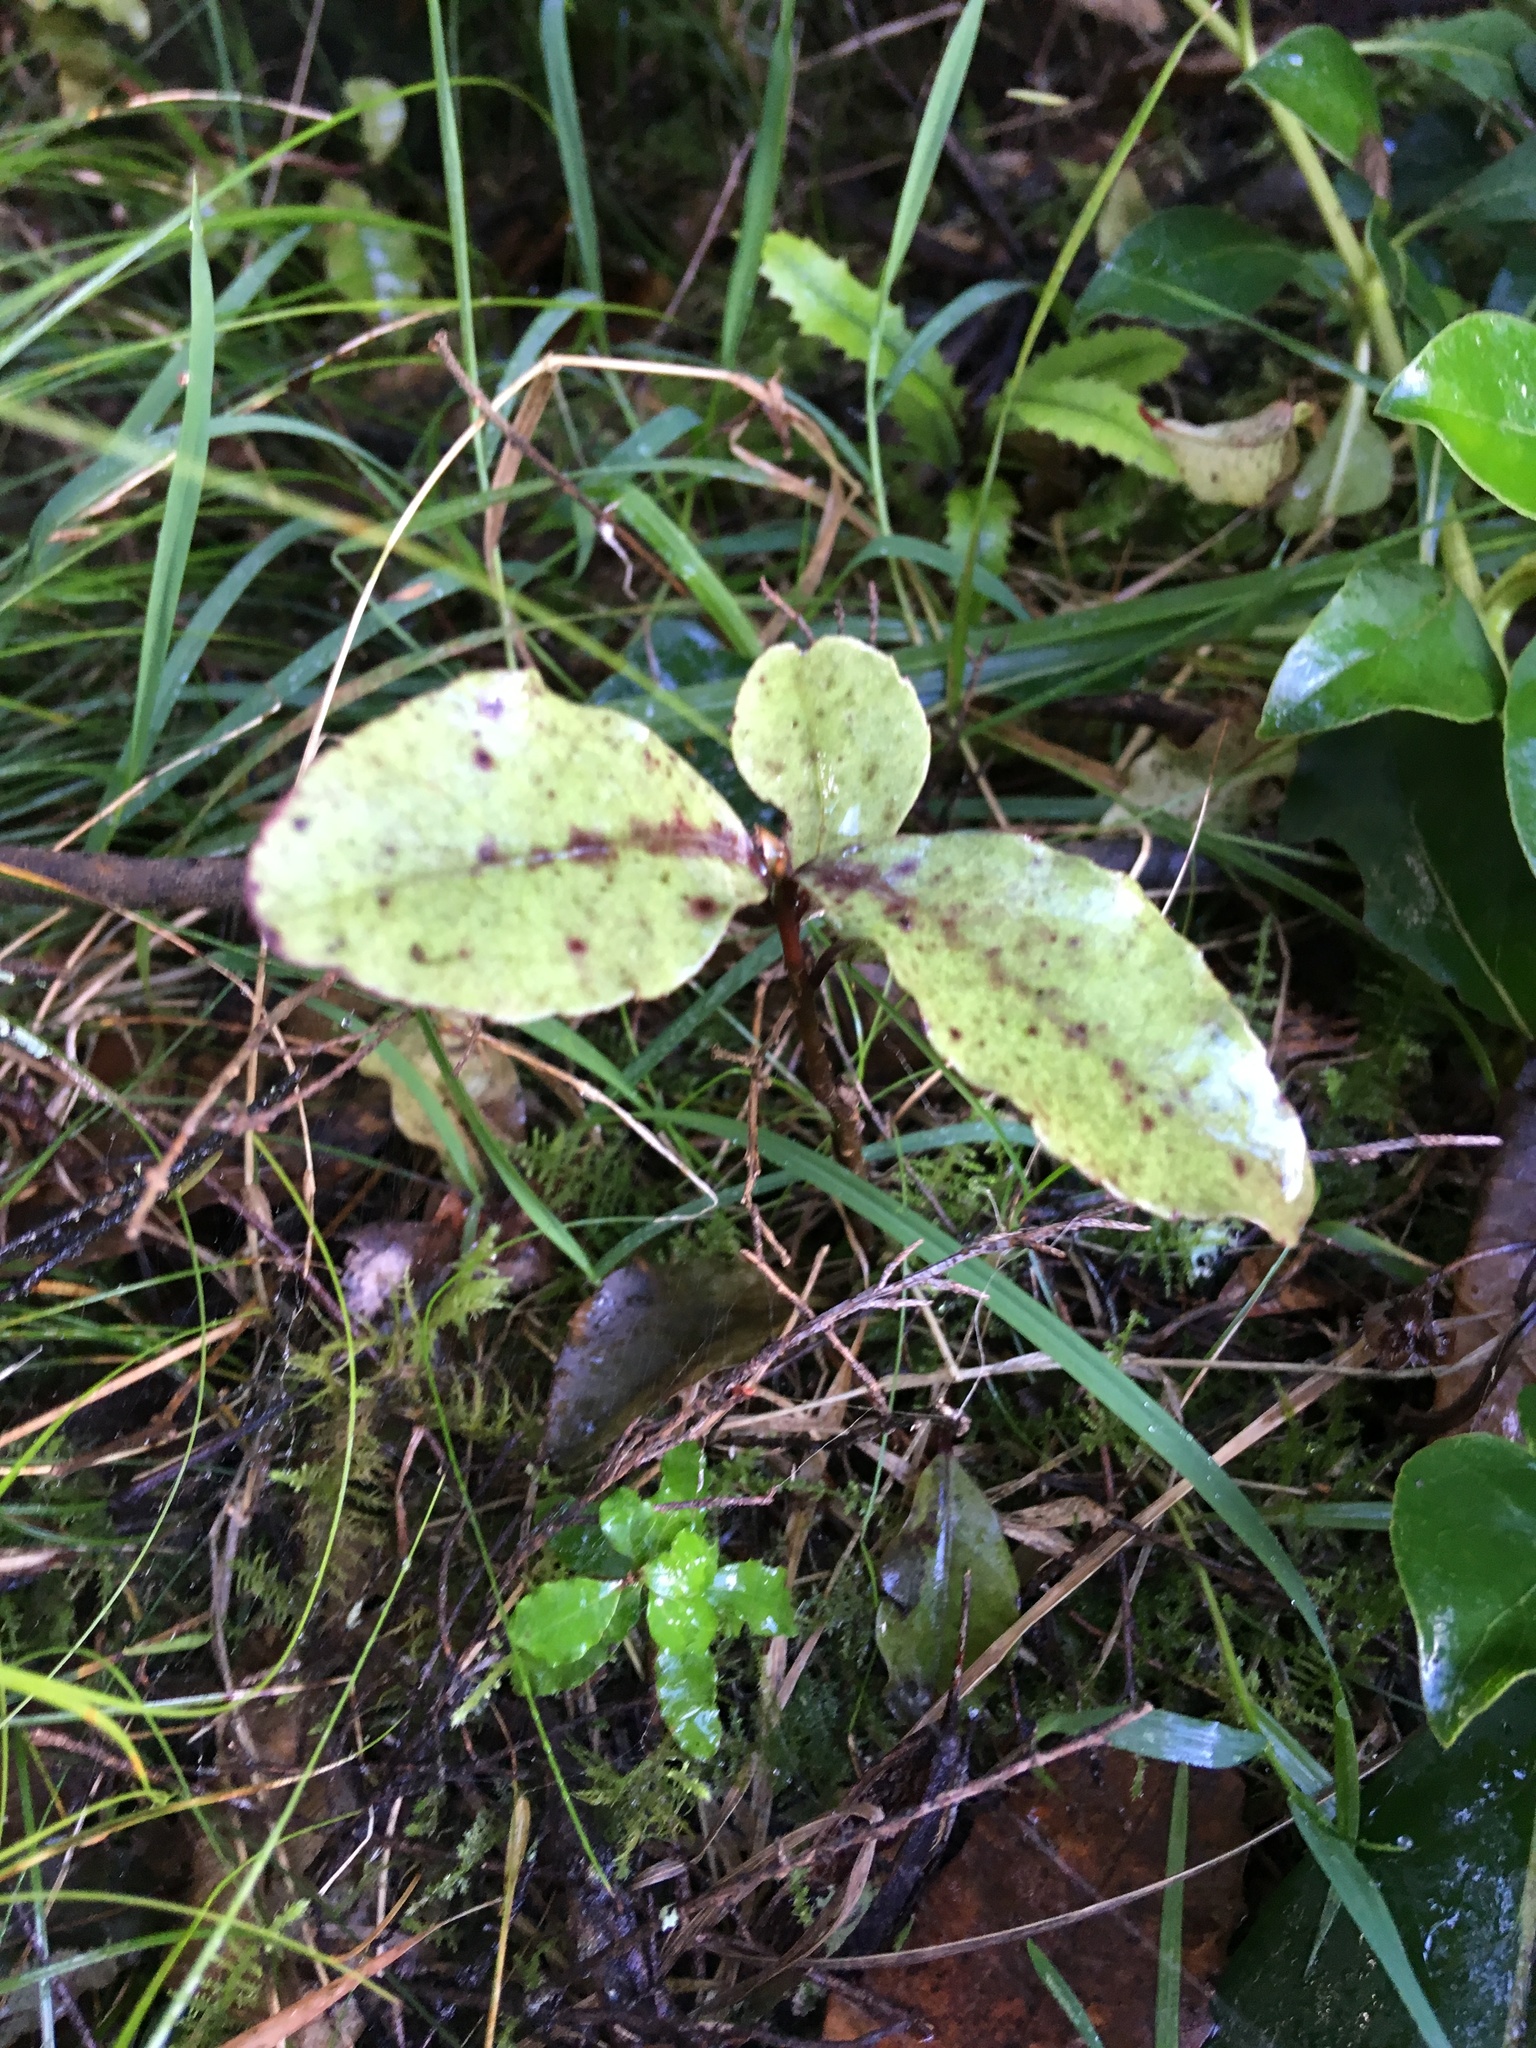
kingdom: Plantae
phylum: Tracheophyta
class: Magnoliopsida
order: Ericales
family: Primulaceae
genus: Myrsine
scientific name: Myrsine australis
